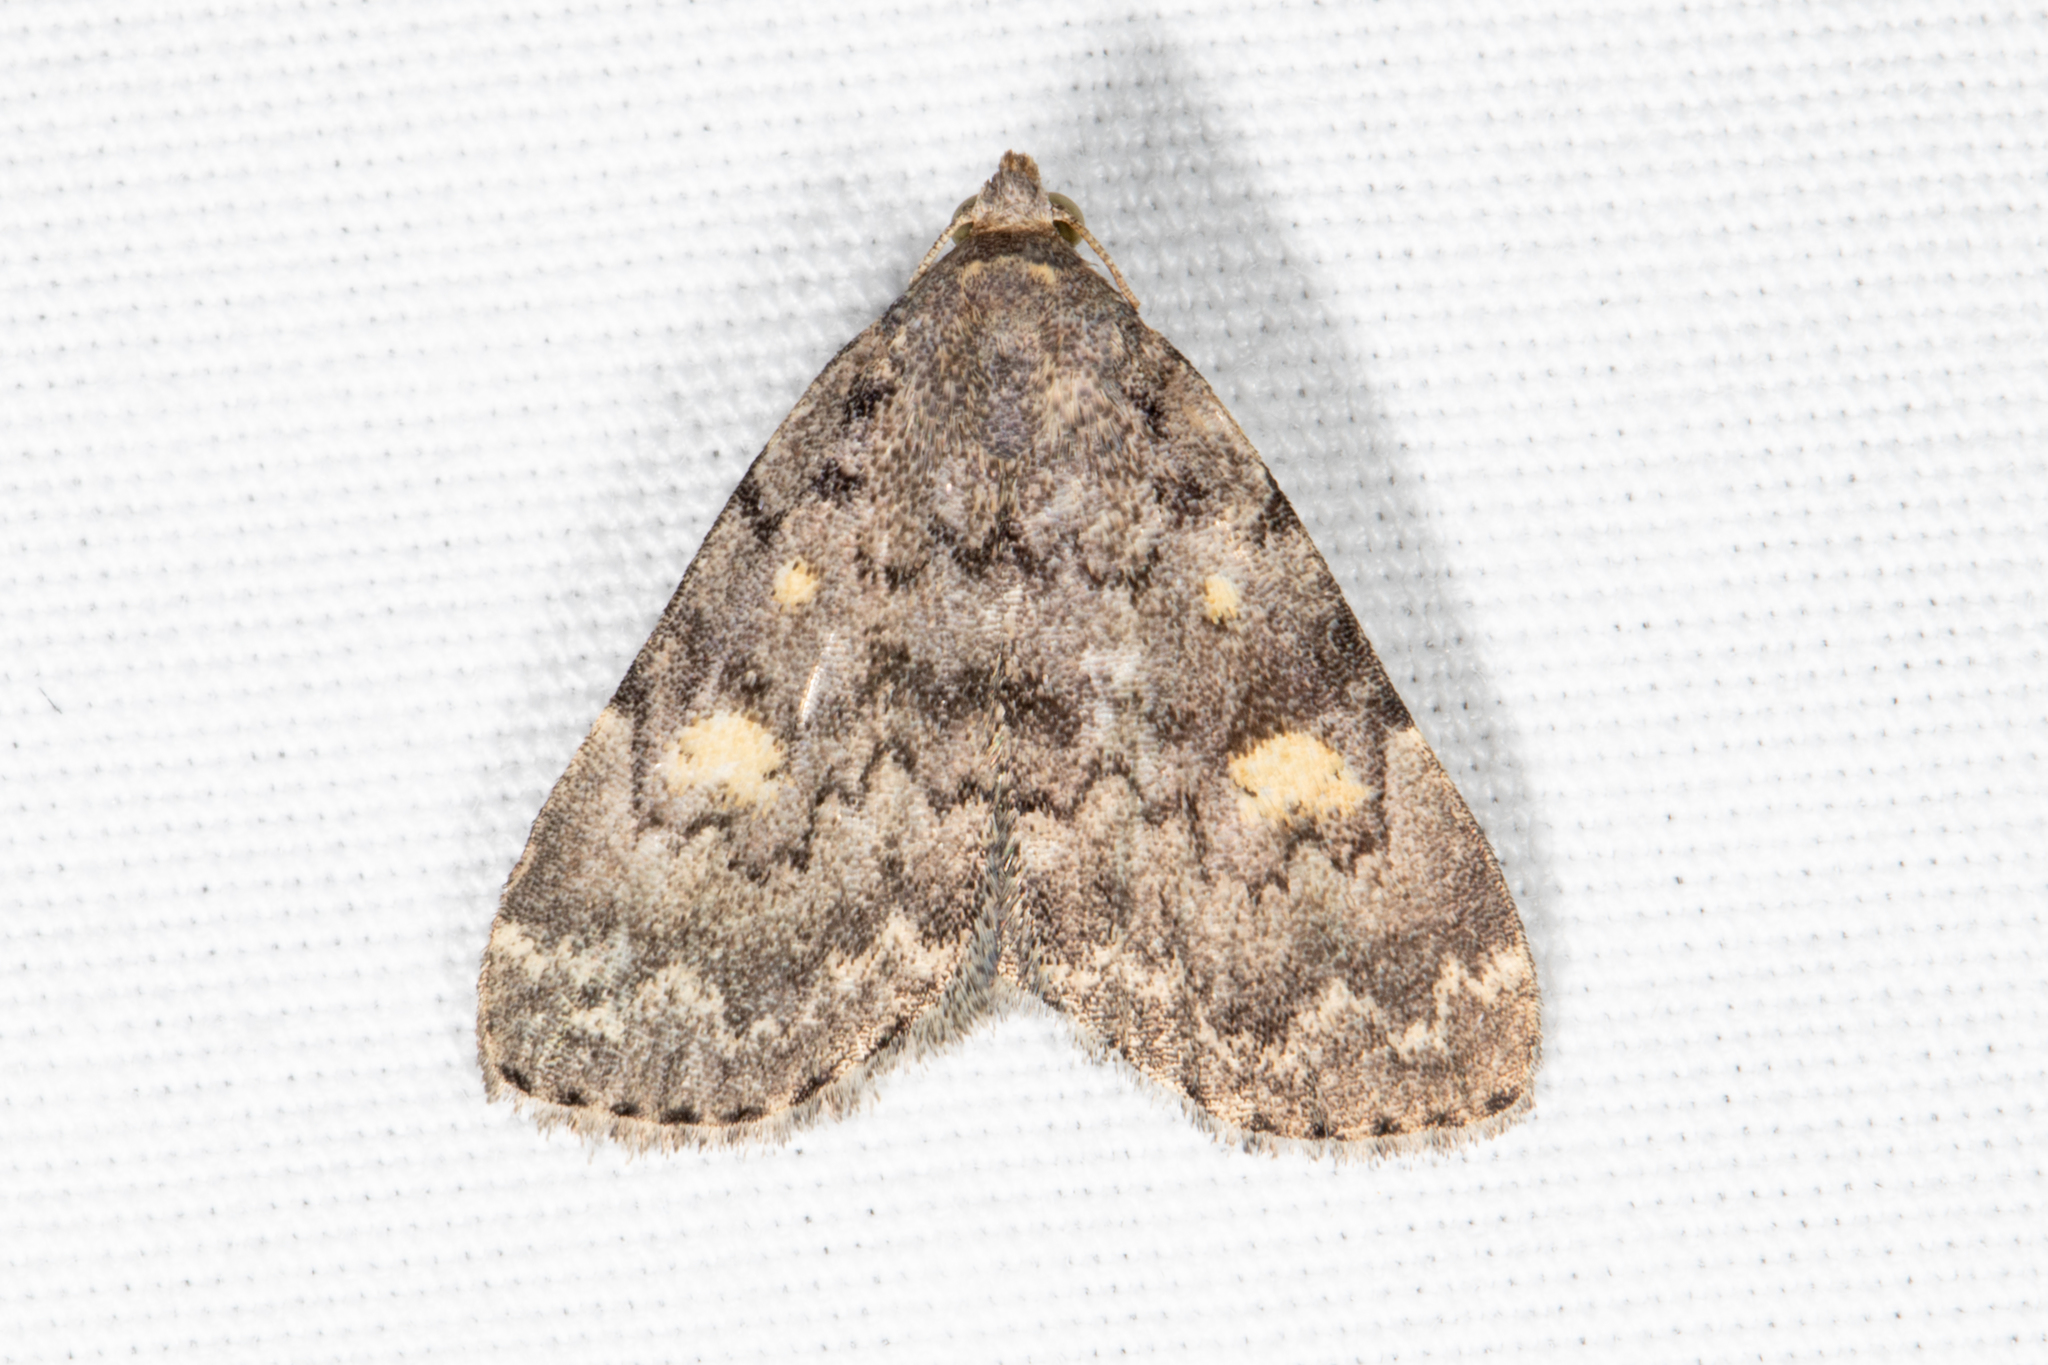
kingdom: Animalia
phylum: Arthropoda
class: Insecta
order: Lepidoptera
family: Erebidae
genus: Idia
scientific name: Idia aemula
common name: Common idia moth
